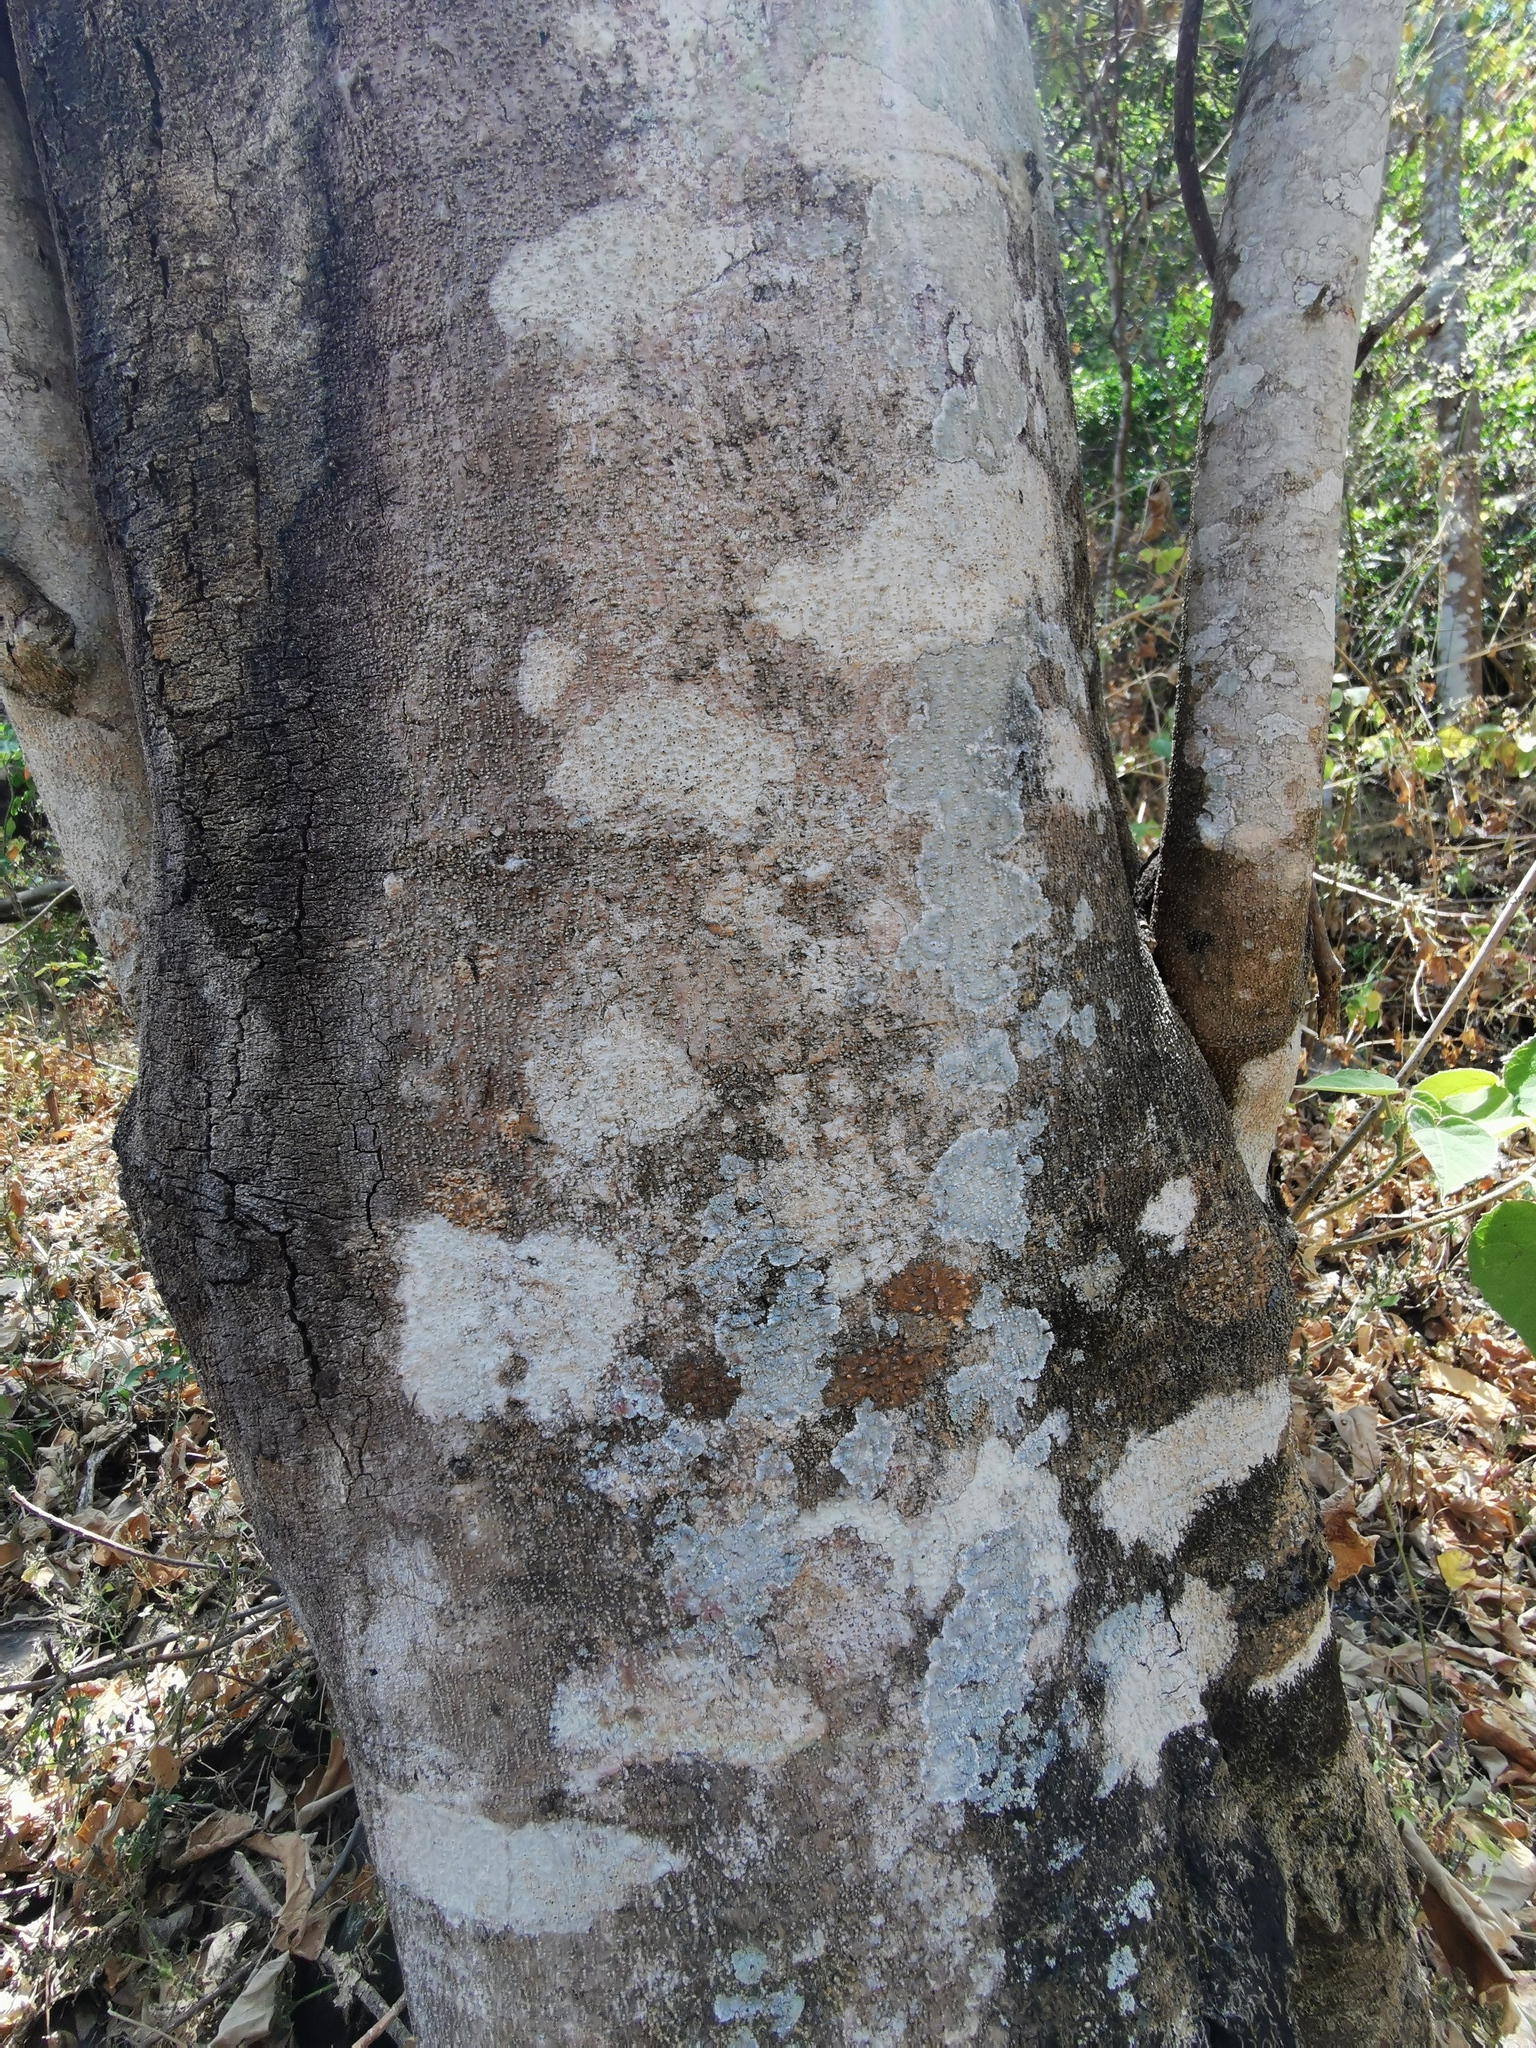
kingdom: Plantae
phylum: Tracheophyta
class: Magnoliopsida
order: Malpighiales
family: Euphorbiaceae
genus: Croton
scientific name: Croton draco
